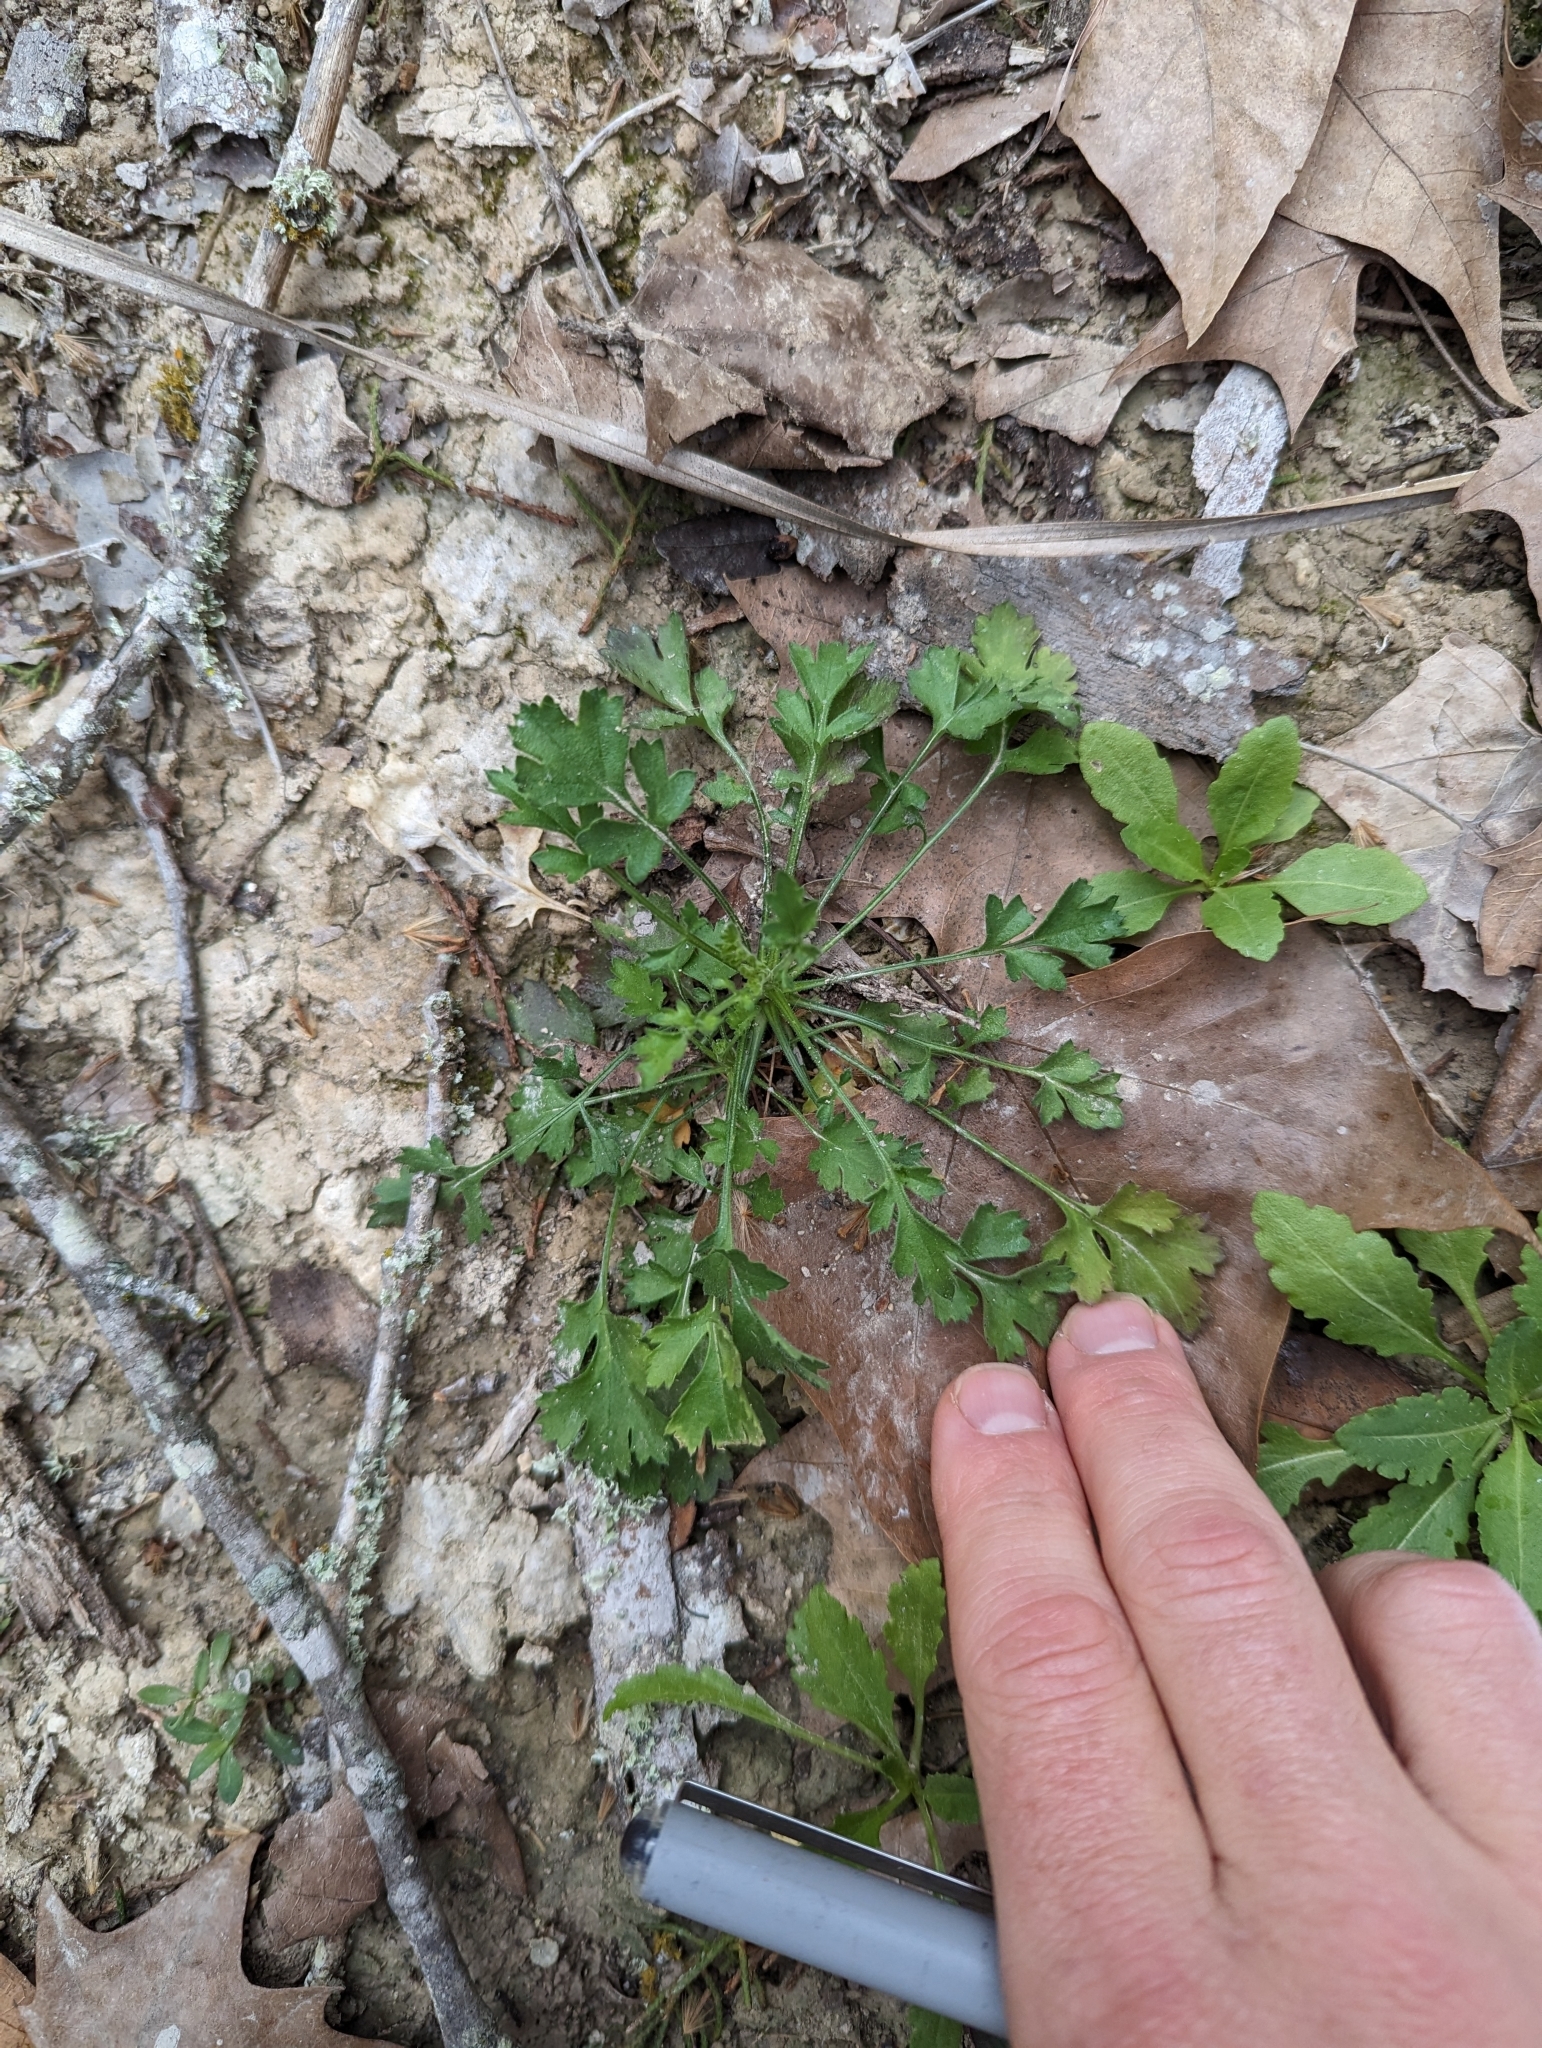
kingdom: Plantae
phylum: Tracheophyta
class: Magnoliopsida
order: Ericales
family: Polemoniaceae
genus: Giliastrum
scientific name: Giliastrum incisum
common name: Splitleaf gilia
